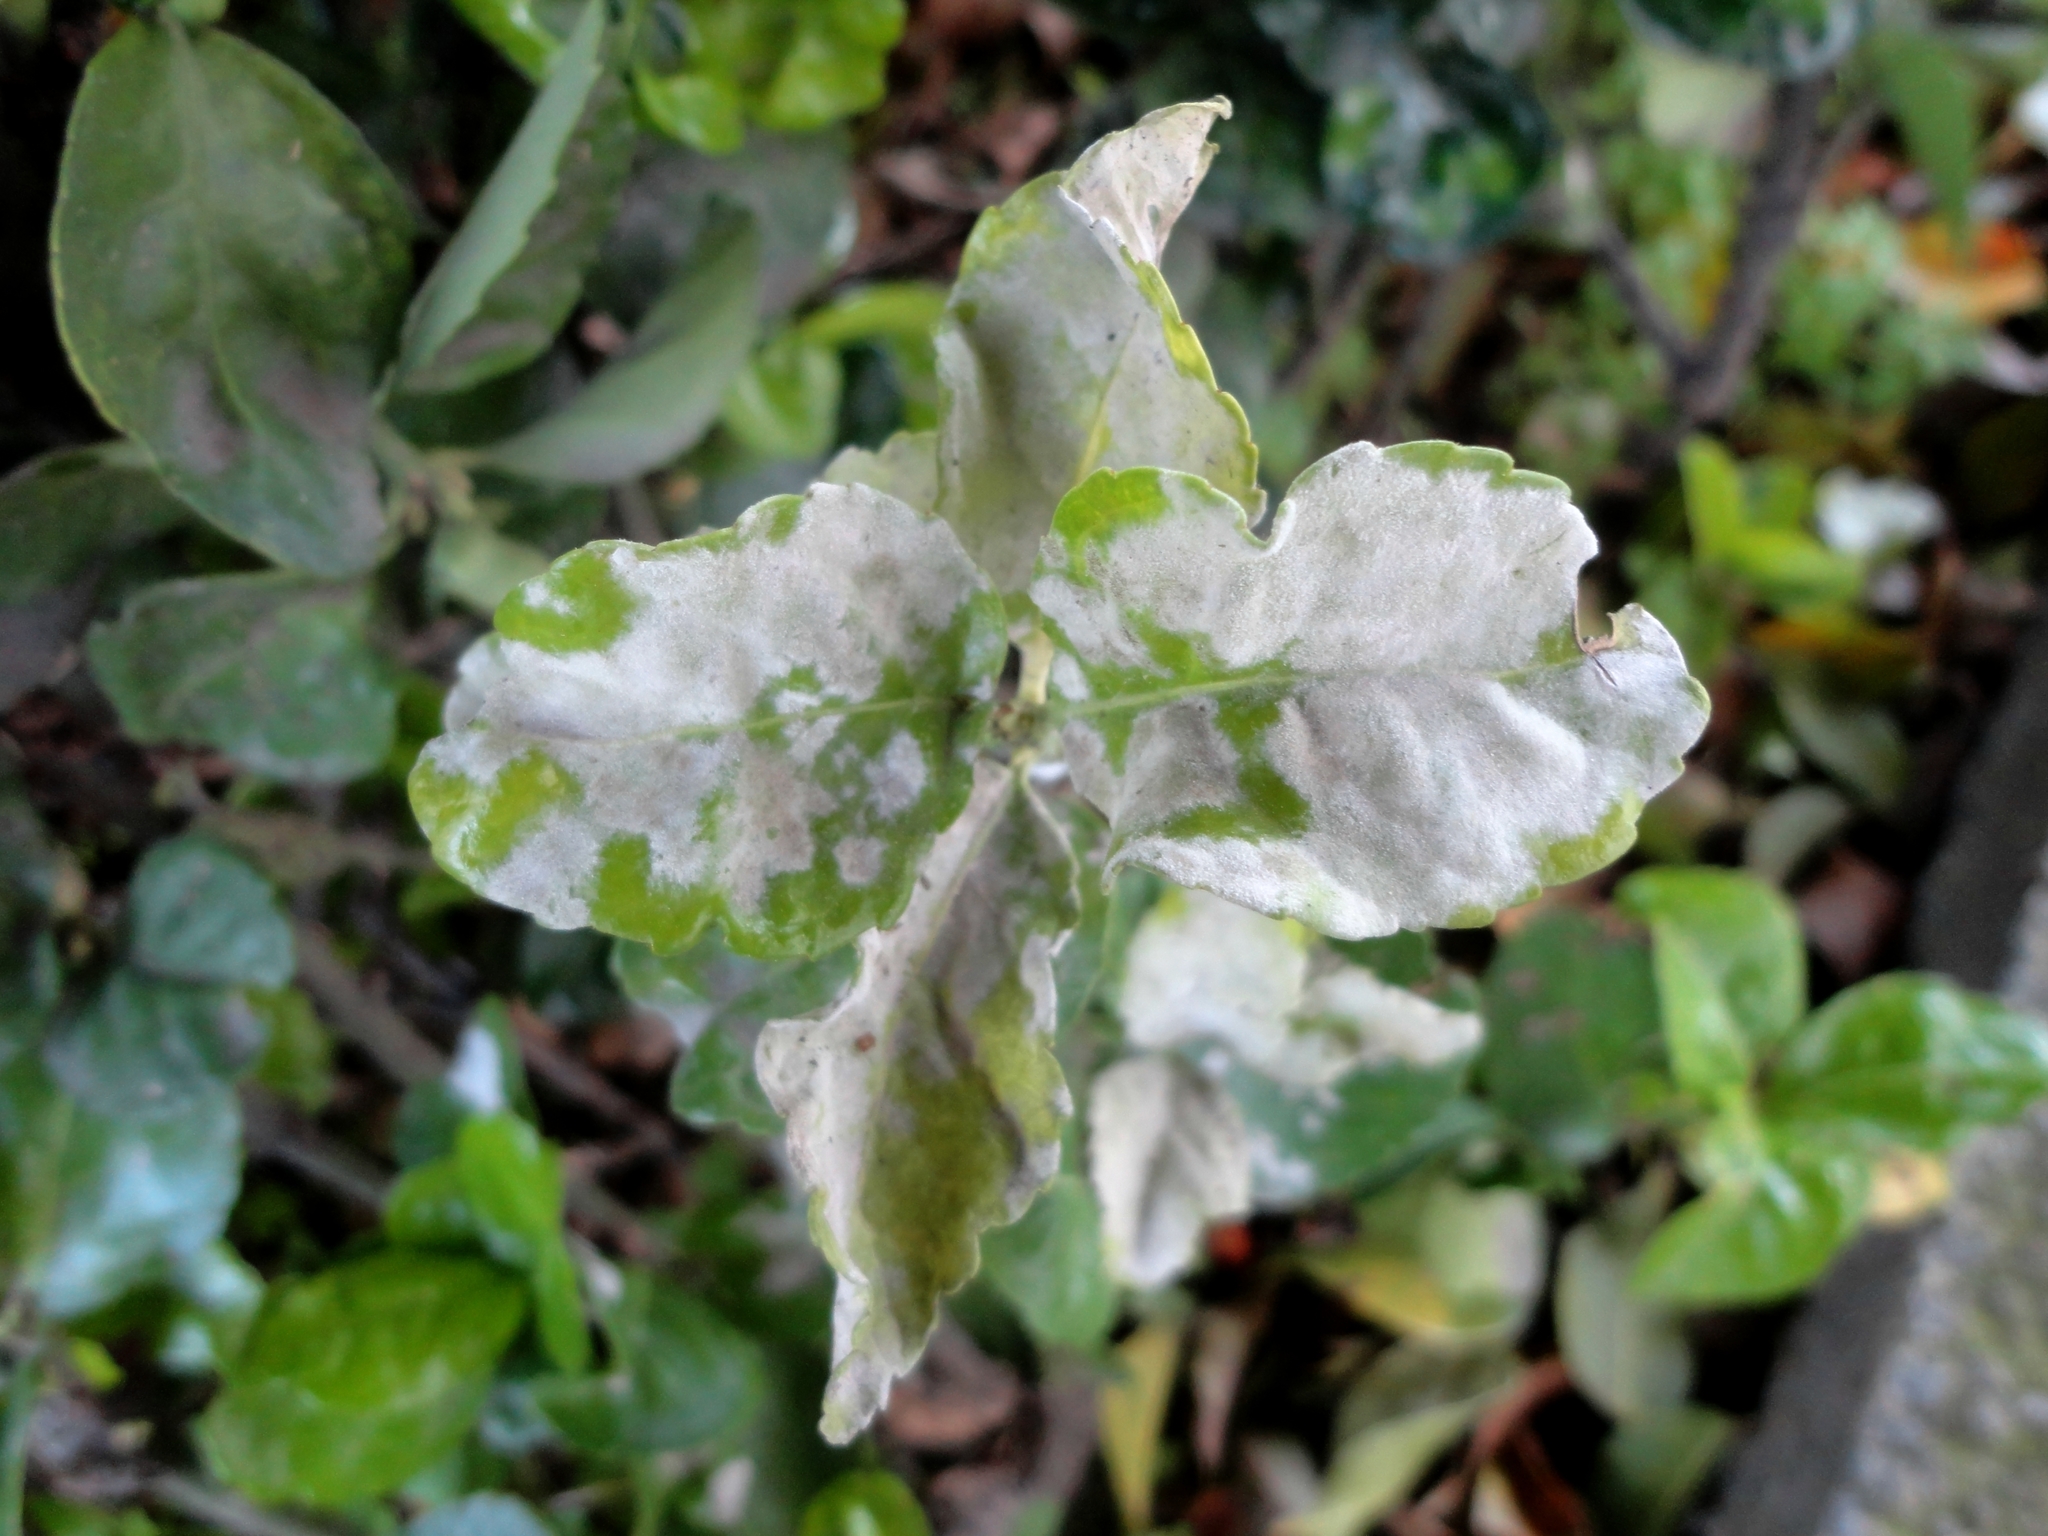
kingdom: Fungi
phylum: Ascomycota
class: Leotiomycetes
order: Helotiales
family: Erysiphaceae
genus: Erysiphe
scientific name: Erysiphe euonymicola
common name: Spindletree mildew
